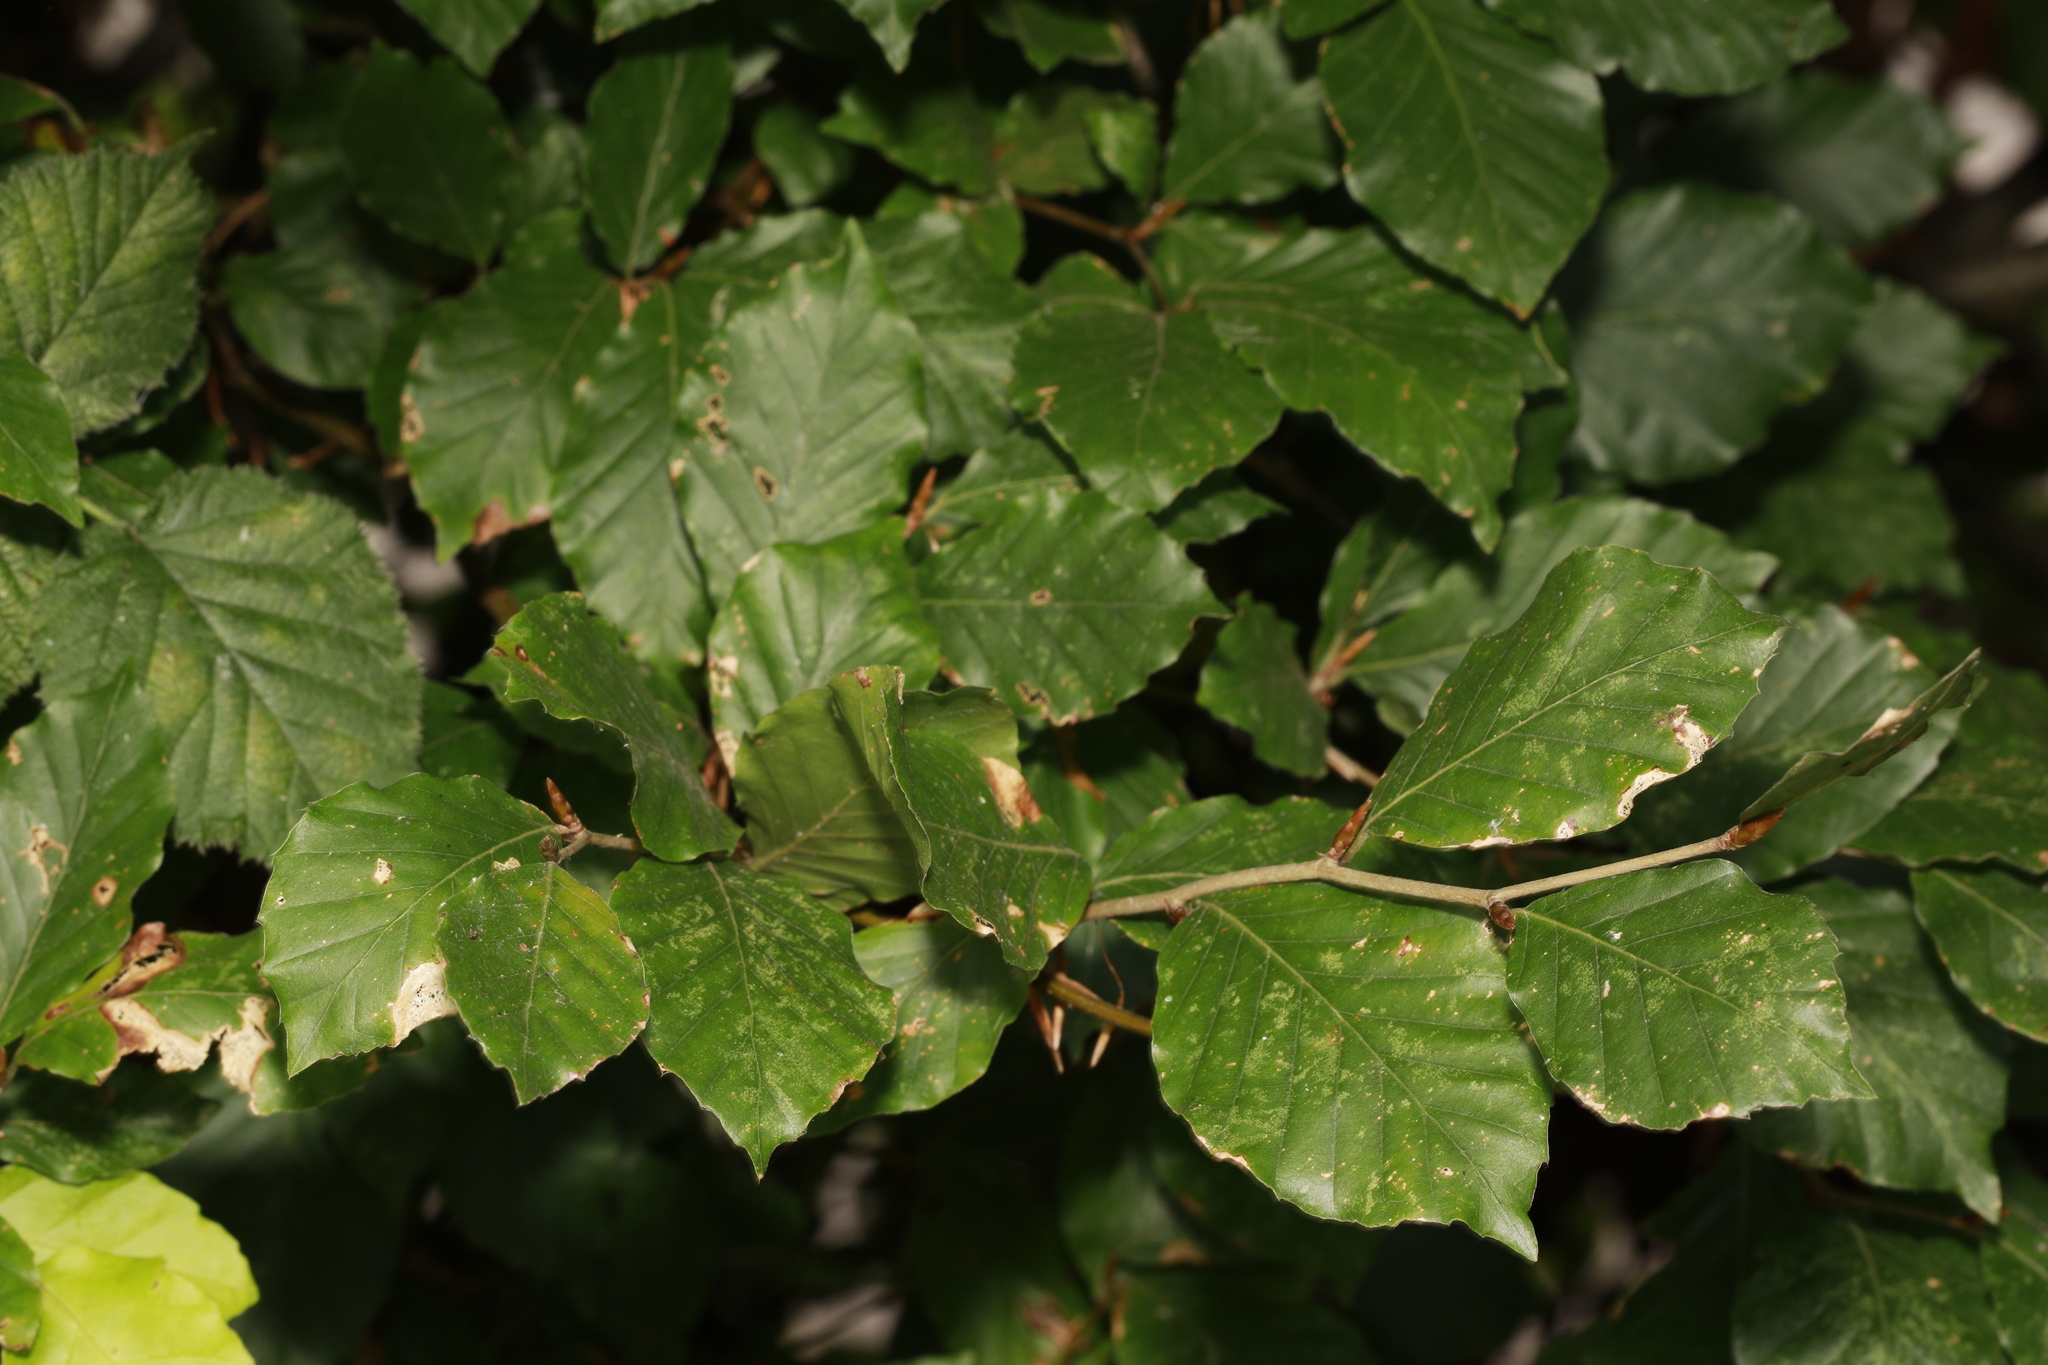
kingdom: Plantae
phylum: Tracheophyta
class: Magnoliopsida
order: Fagales
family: Fagaceae
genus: Fagus
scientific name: Fagus sylvatica
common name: Beech
